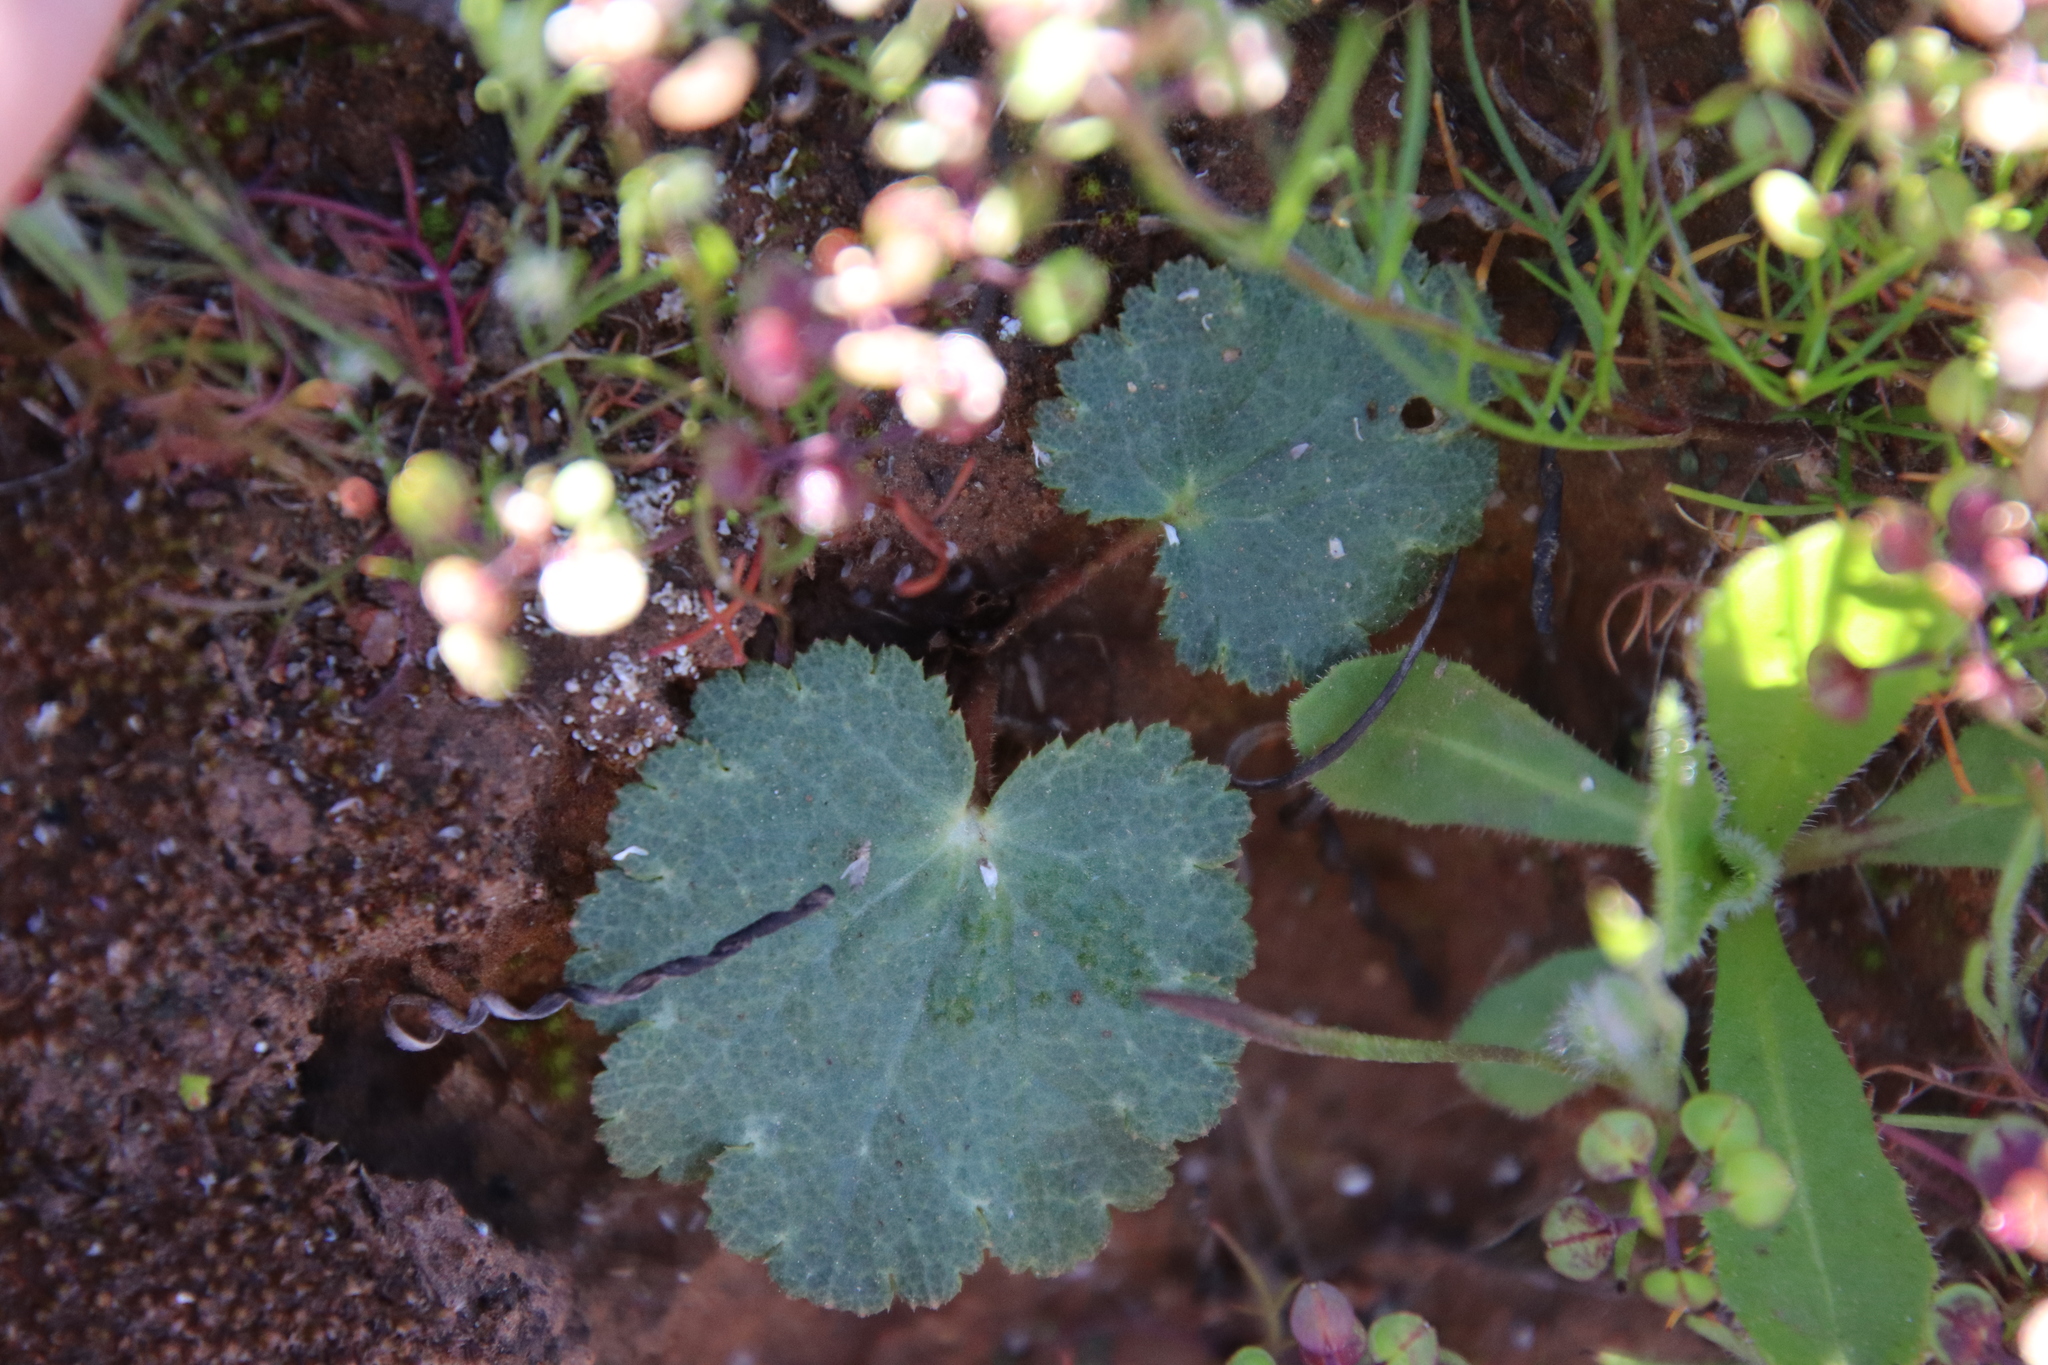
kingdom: Plantae
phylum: Tracheophyta
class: Magnoliopsida
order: Saxifragales
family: Saxifragaceae
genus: Jepsonia
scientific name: Jepsonia parryi
